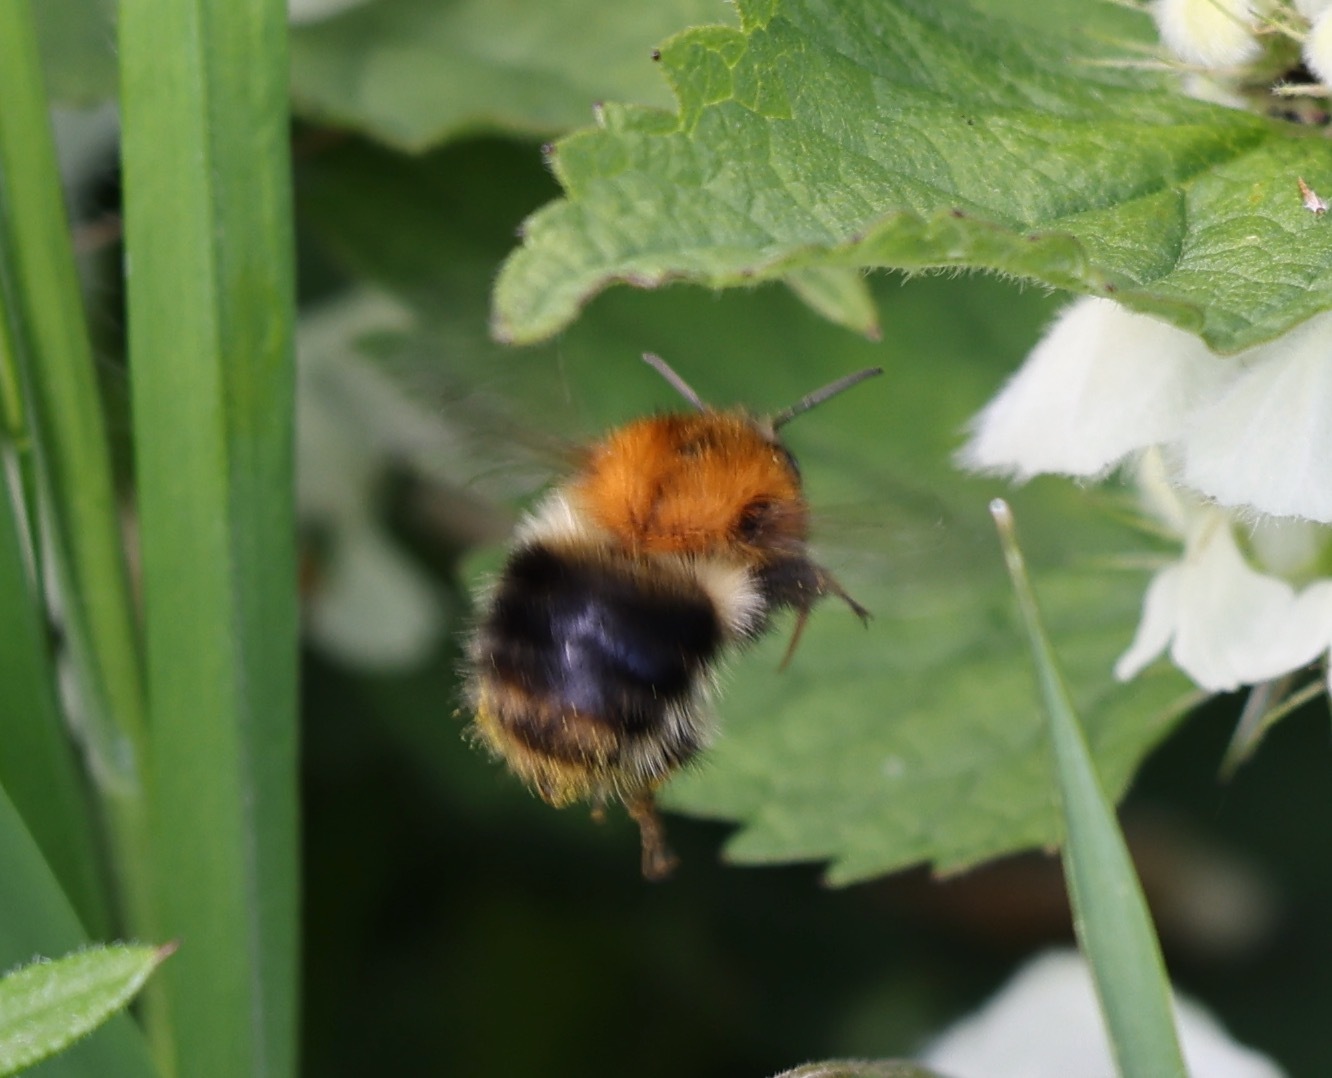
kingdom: Animalia
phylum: Arthropoda
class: Insecta
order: Hymenoptera
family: Apidae
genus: Bombus
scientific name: Bombus pascuorum
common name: Common carder bee
